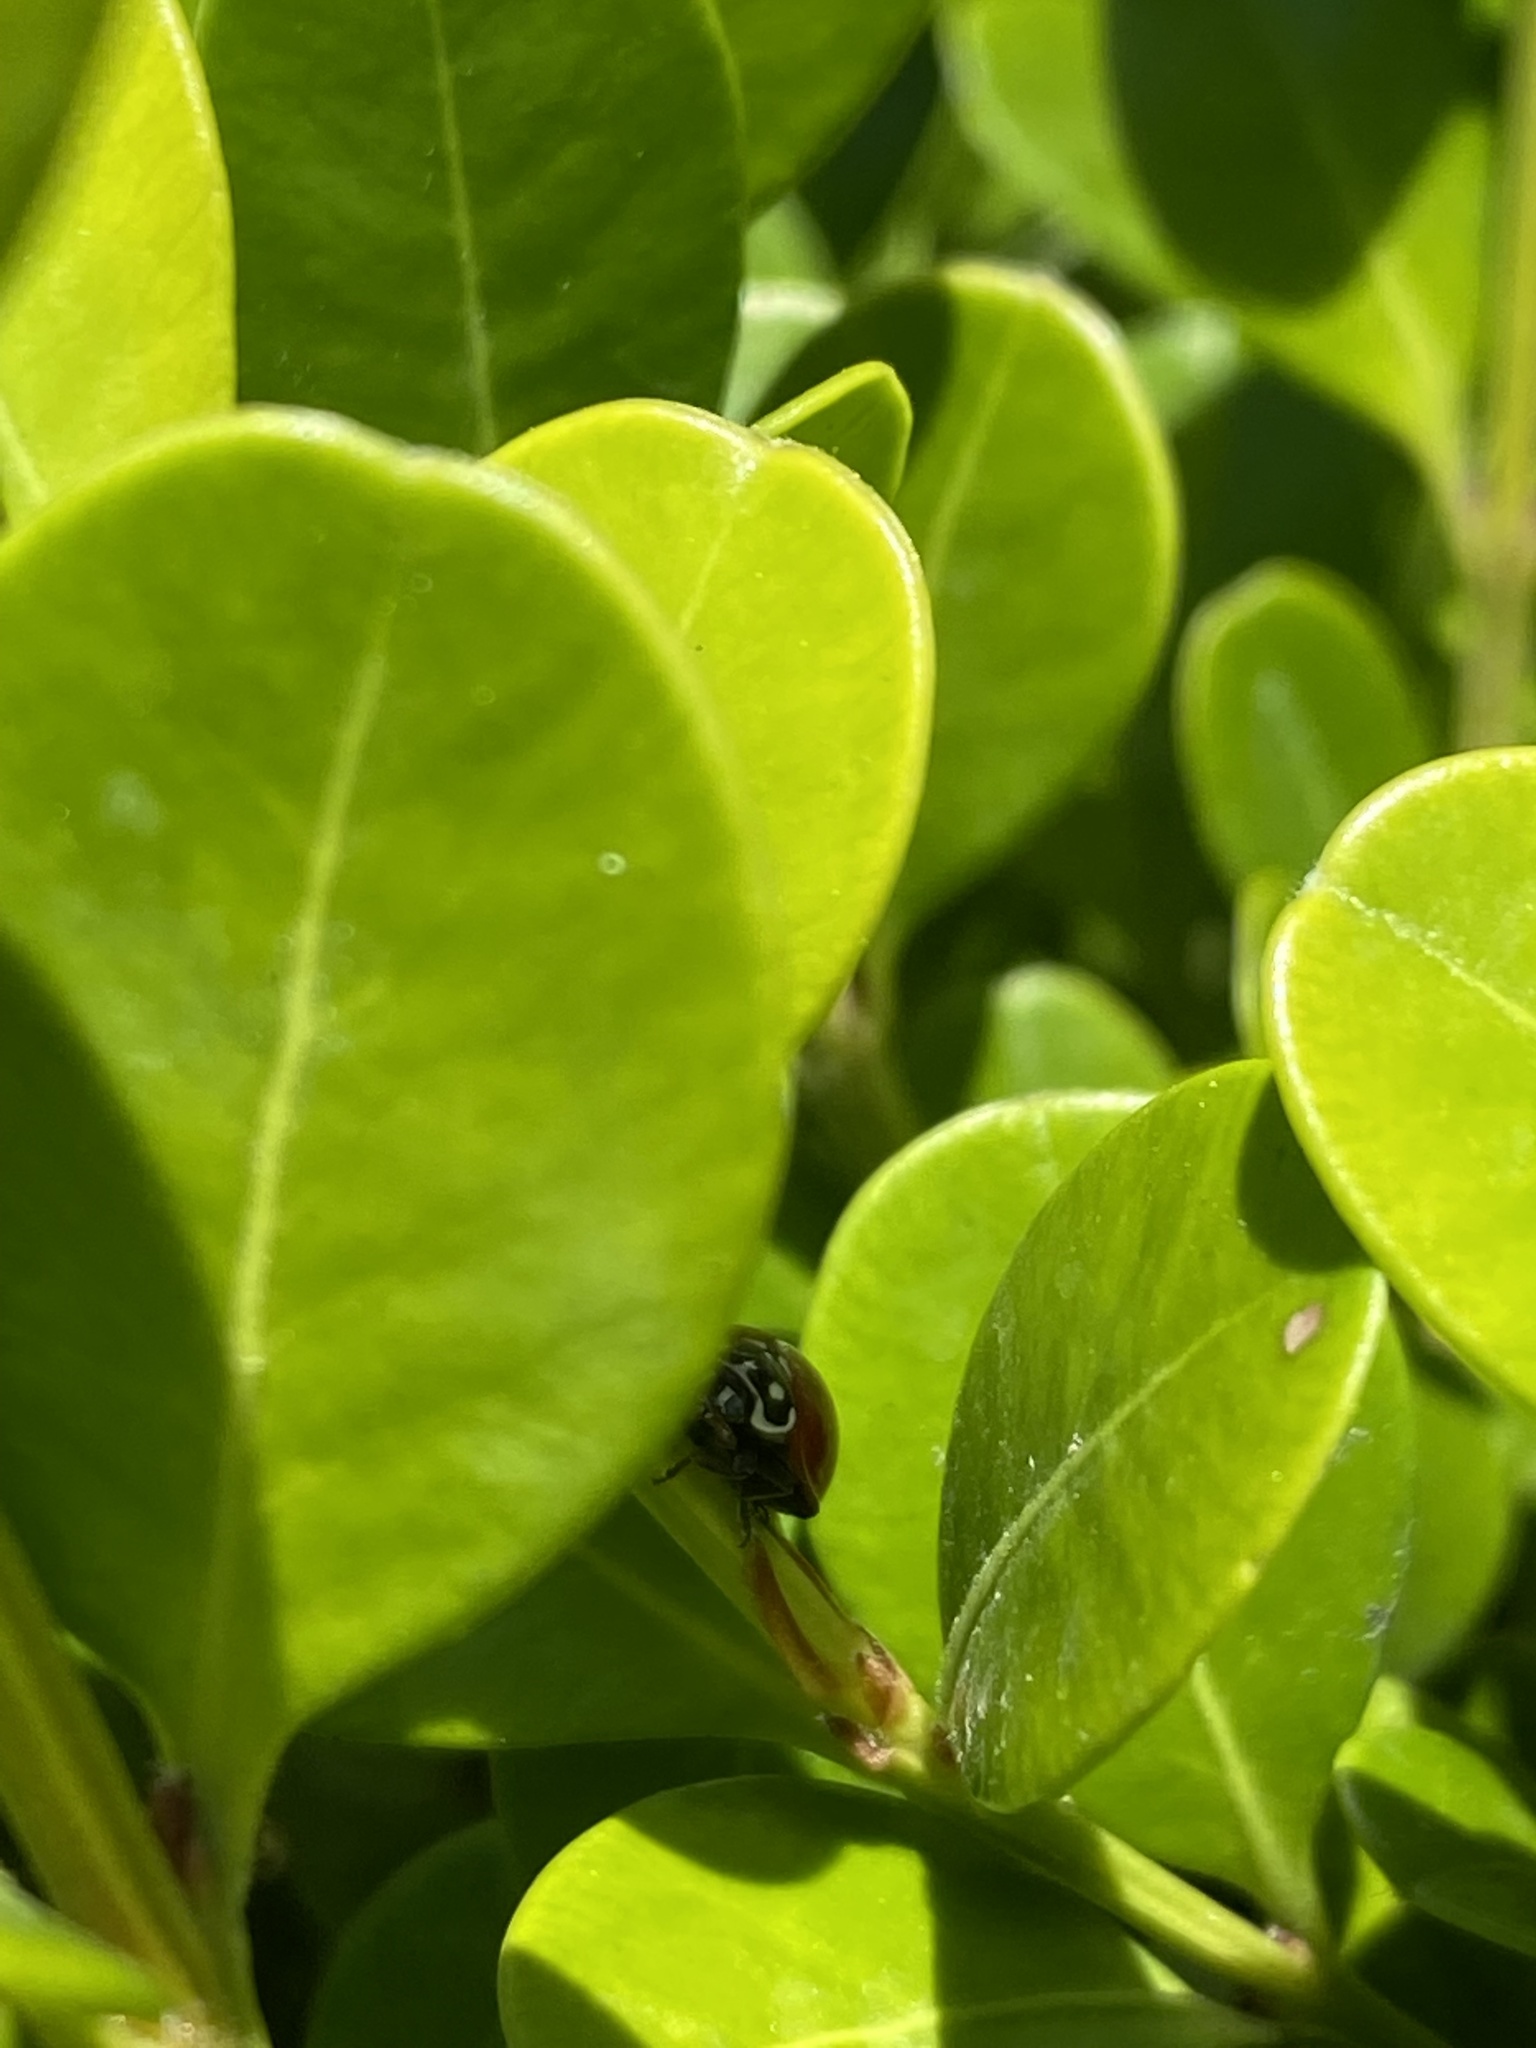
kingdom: Animalia
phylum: Arthropoda
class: Insecta
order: Coleoptera
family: Coccinellidae
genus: Cycloneda
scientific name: Cycloneda sanguinea
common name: Ladybird beetle
